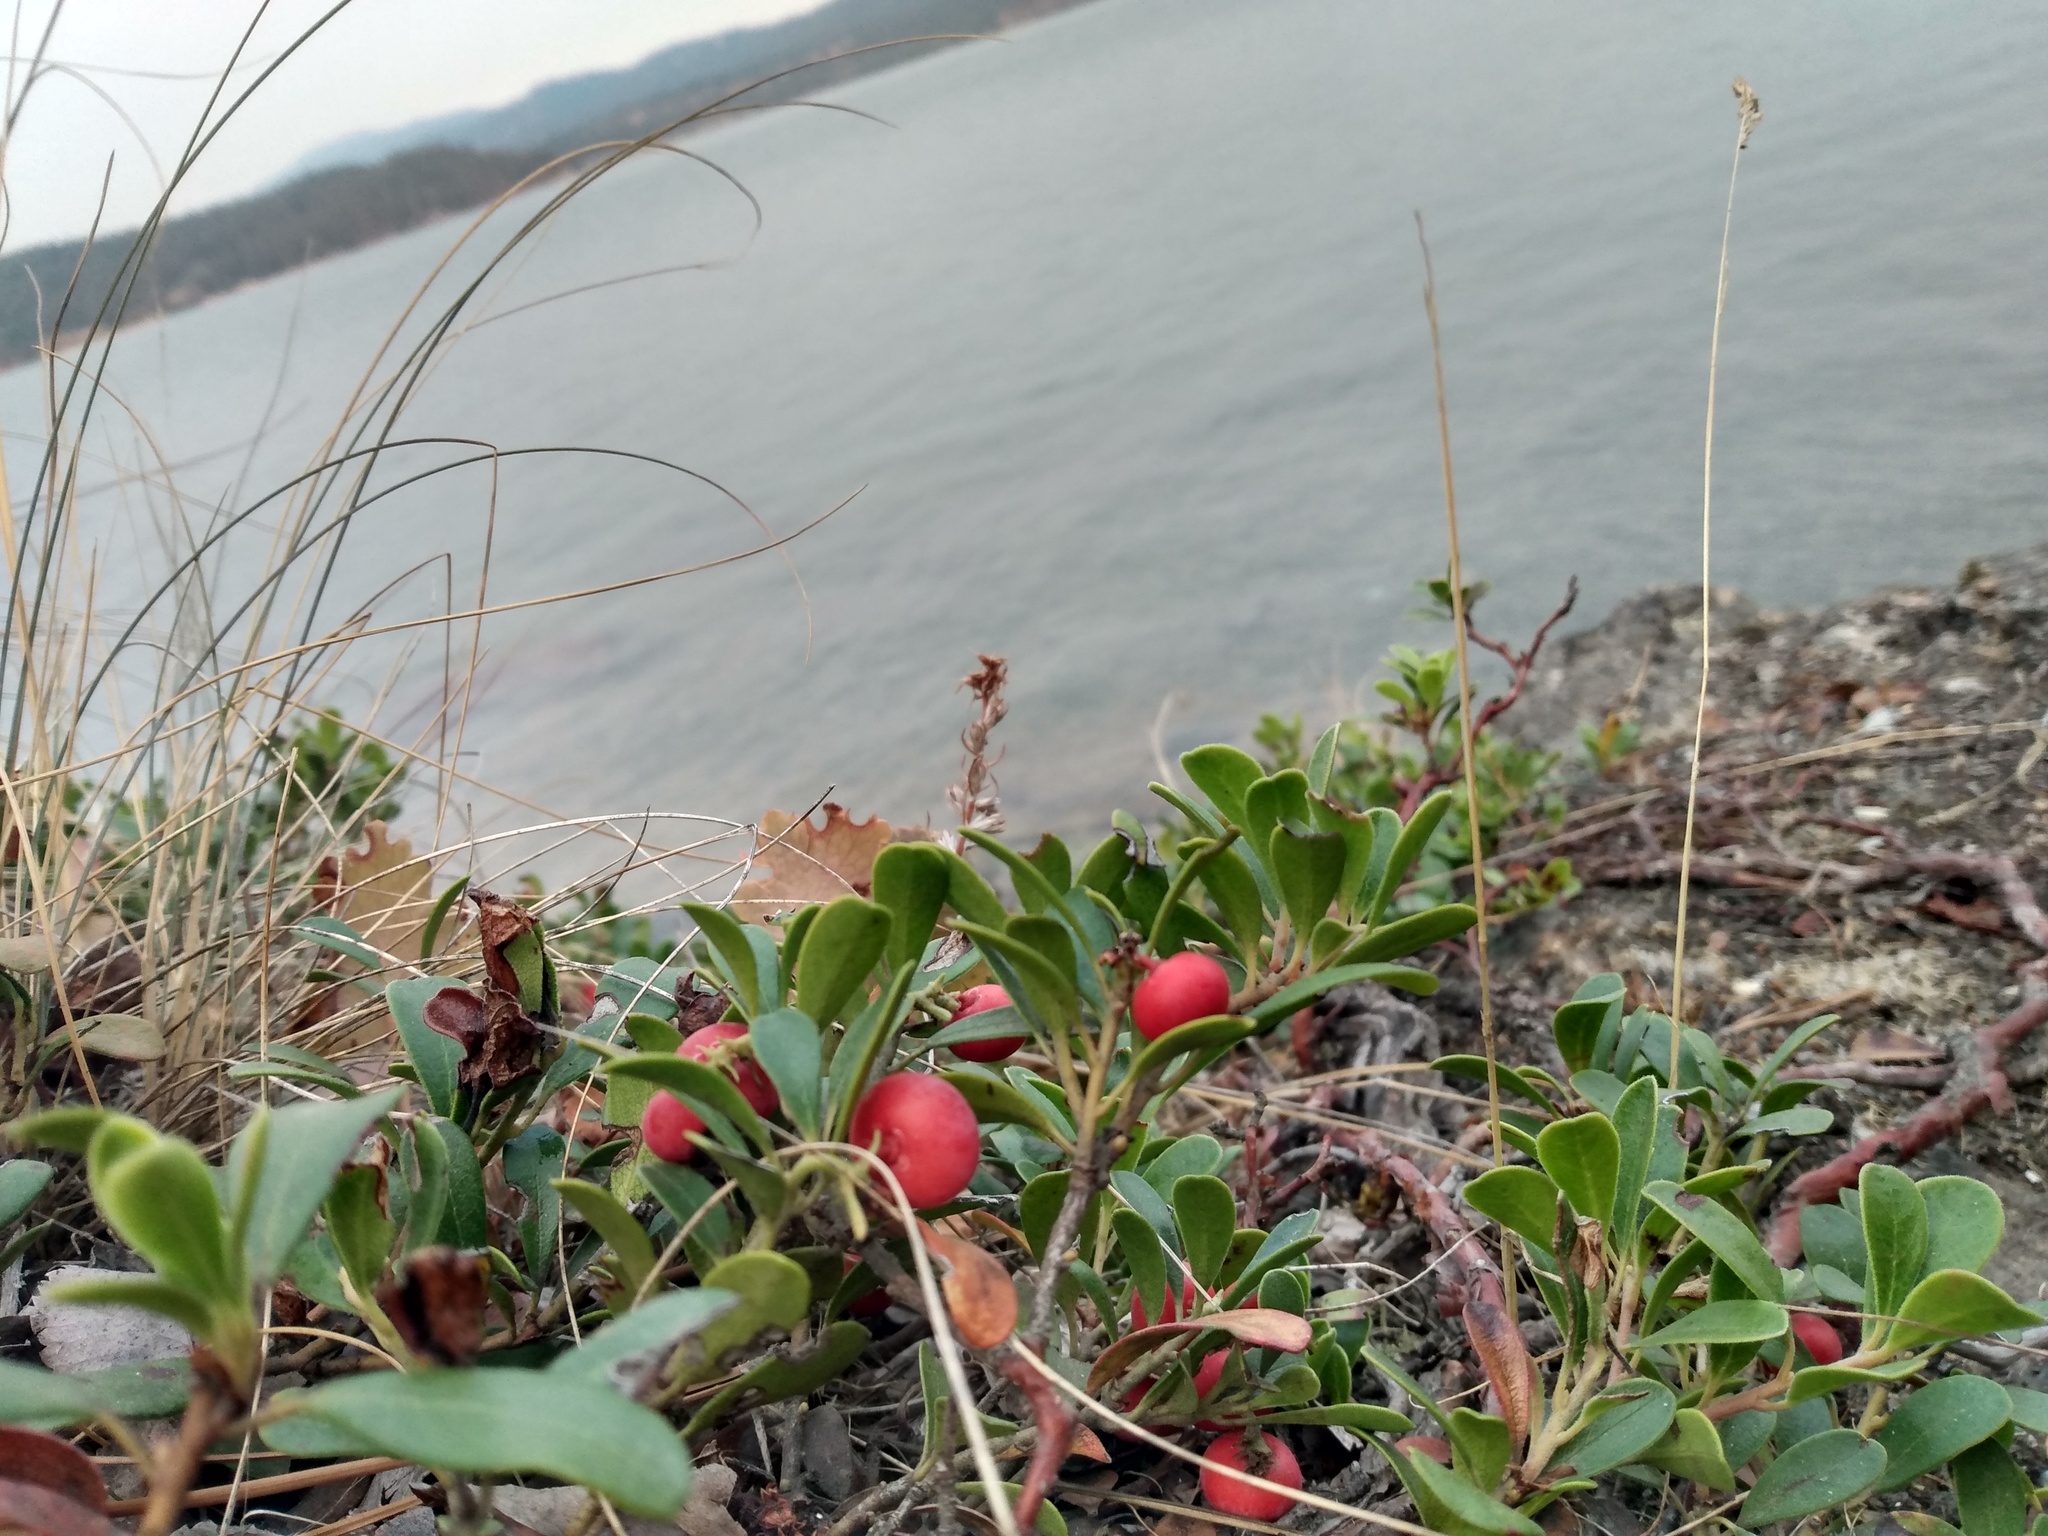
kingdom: Plantae
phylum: Tracheophyta
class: Magnoliopsida
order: Ericales
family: Ericaceae
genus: Arctostaphylos
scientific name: Arctostaphylos uva-ursi
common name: Bearberry
